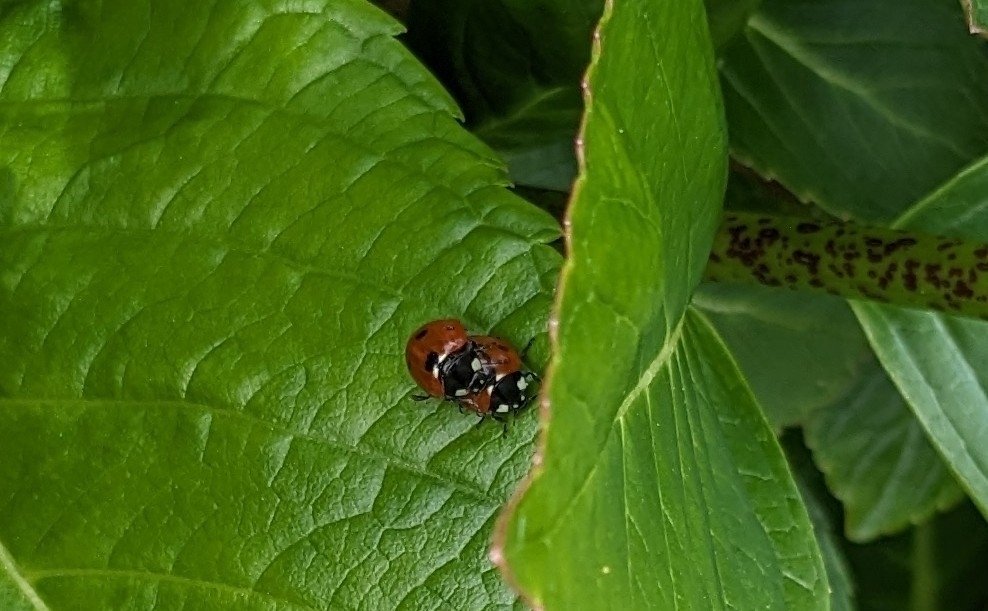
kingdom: Animalia
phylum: Arthropoda
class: Insecta
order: Coleoptera
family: Coccinellidae
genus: Adalia
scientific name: Adalia bipunctata
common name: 2-spot ladybird
